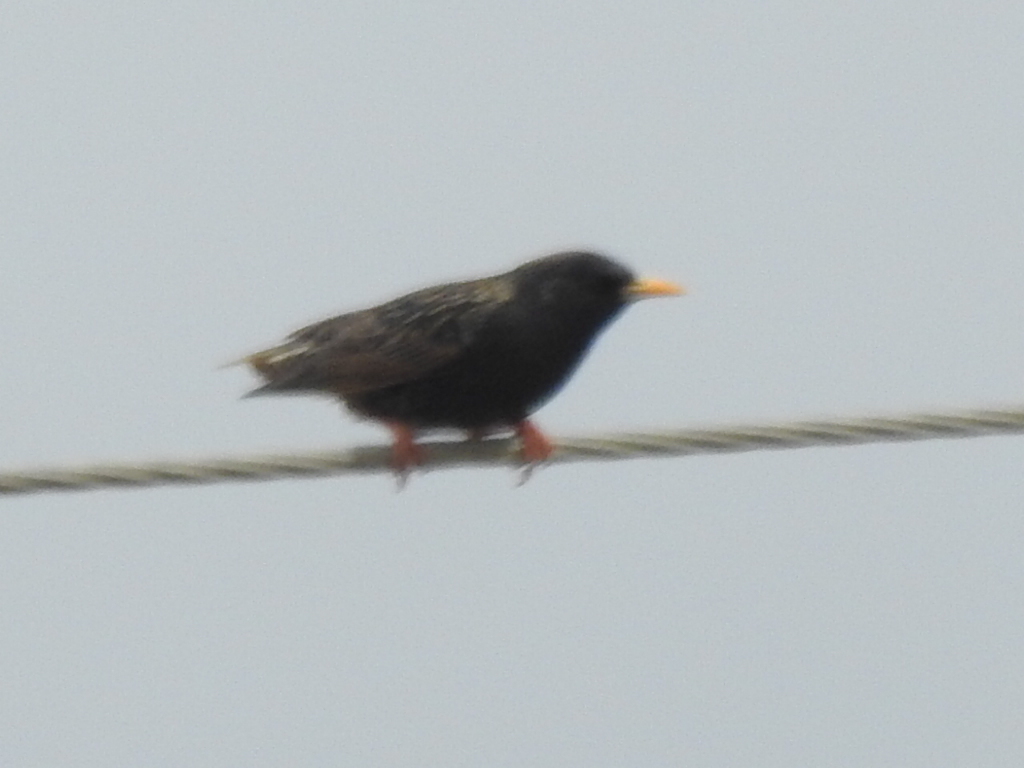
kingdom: Animalia
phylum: Chordata
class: Aves
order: Passeriformes
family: Sturnidae
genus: Sturnus
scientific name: Sturnus vulgaris
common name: Common starling
